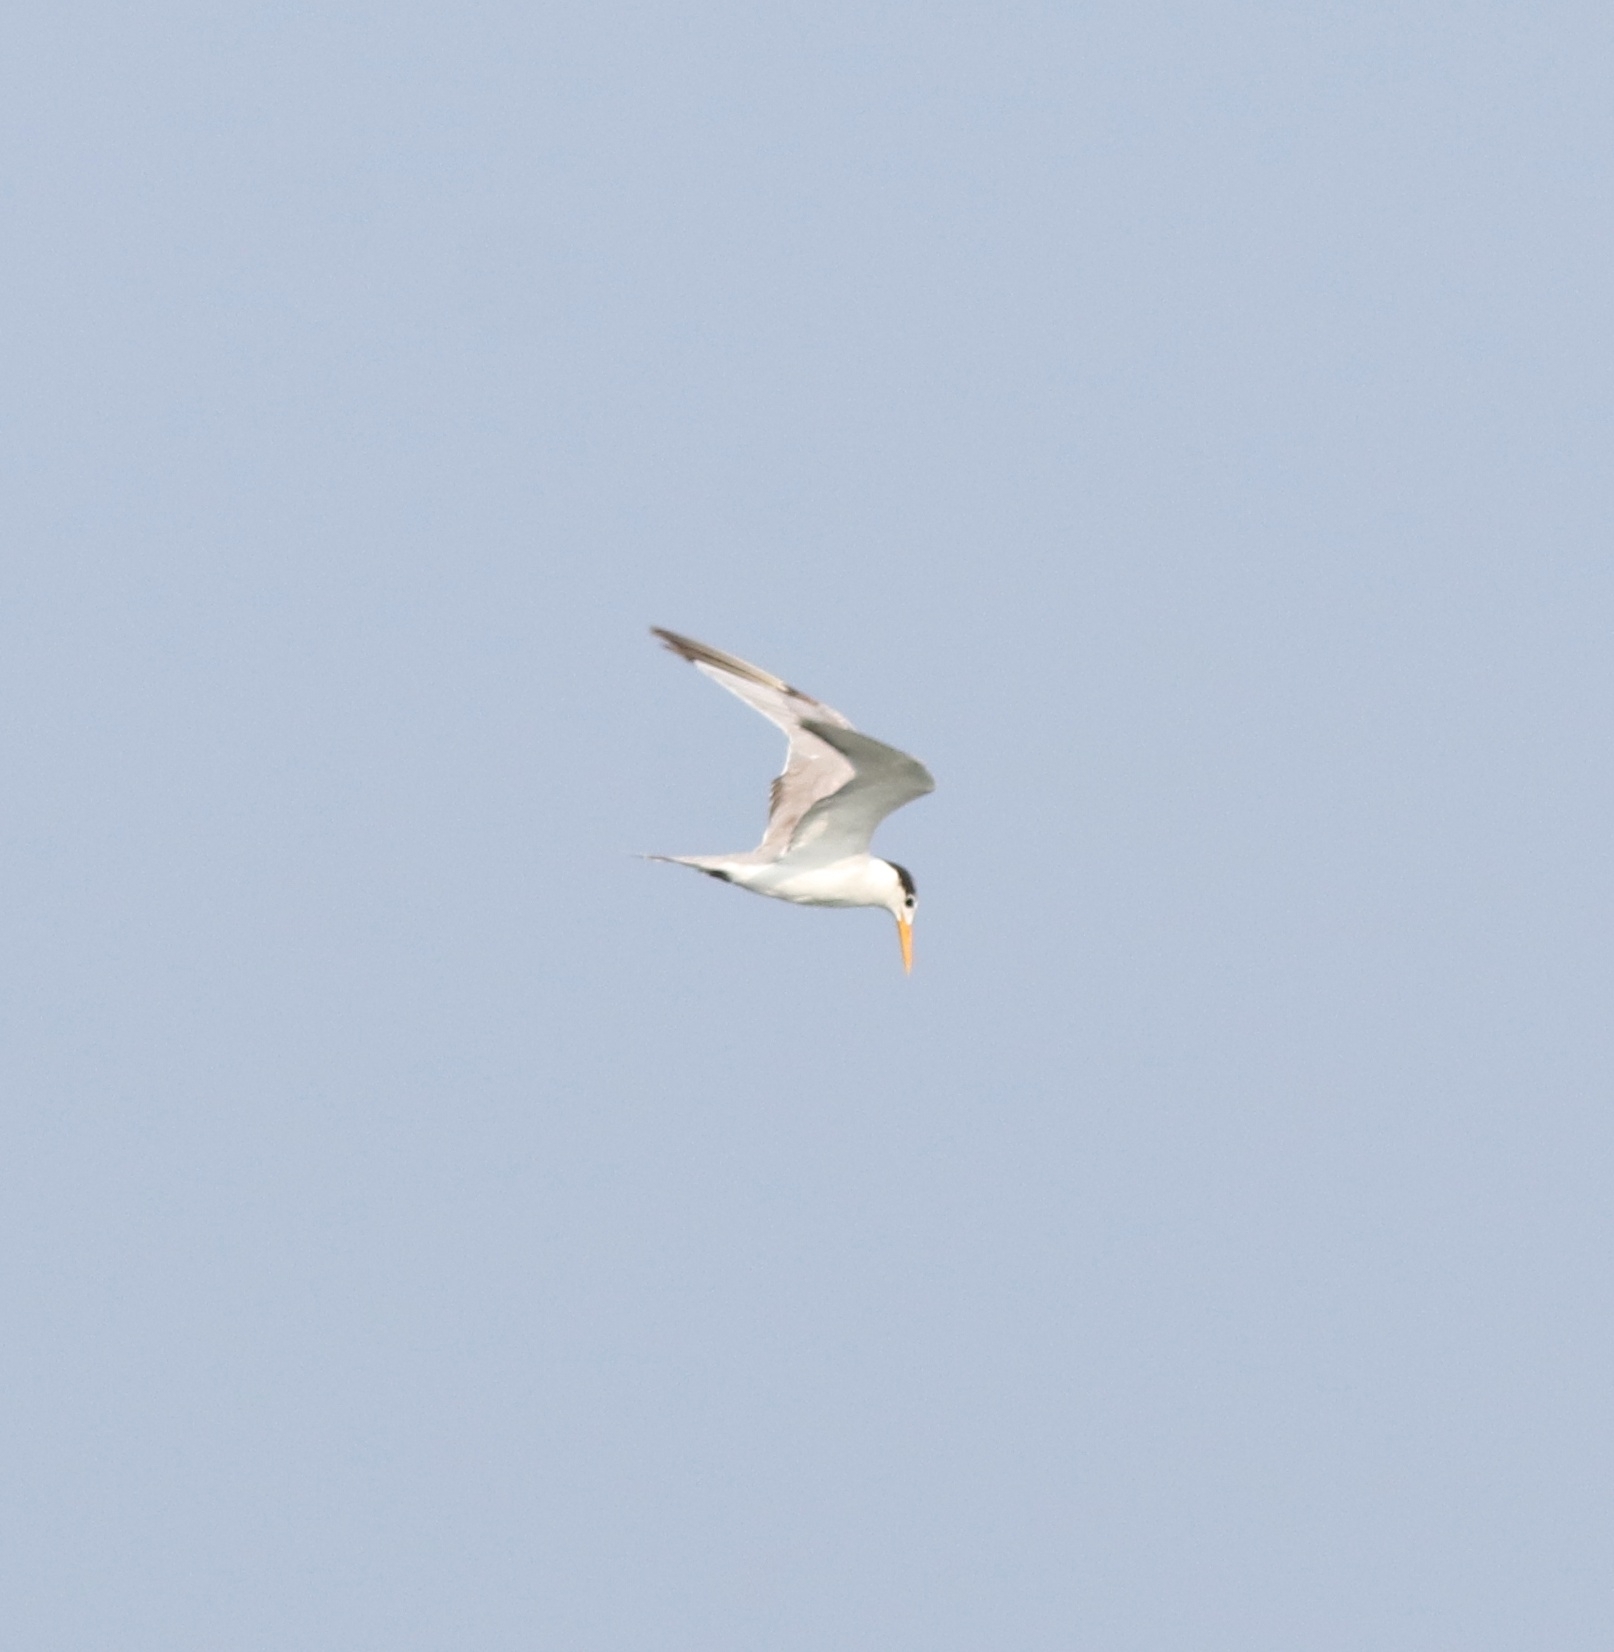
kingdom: Animalia
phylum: Chordata
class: Aves
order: Charadriiformes
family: Laridae
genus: Thalasseus
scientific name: Thalasseus bengalensis
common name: Lesser crested tern
